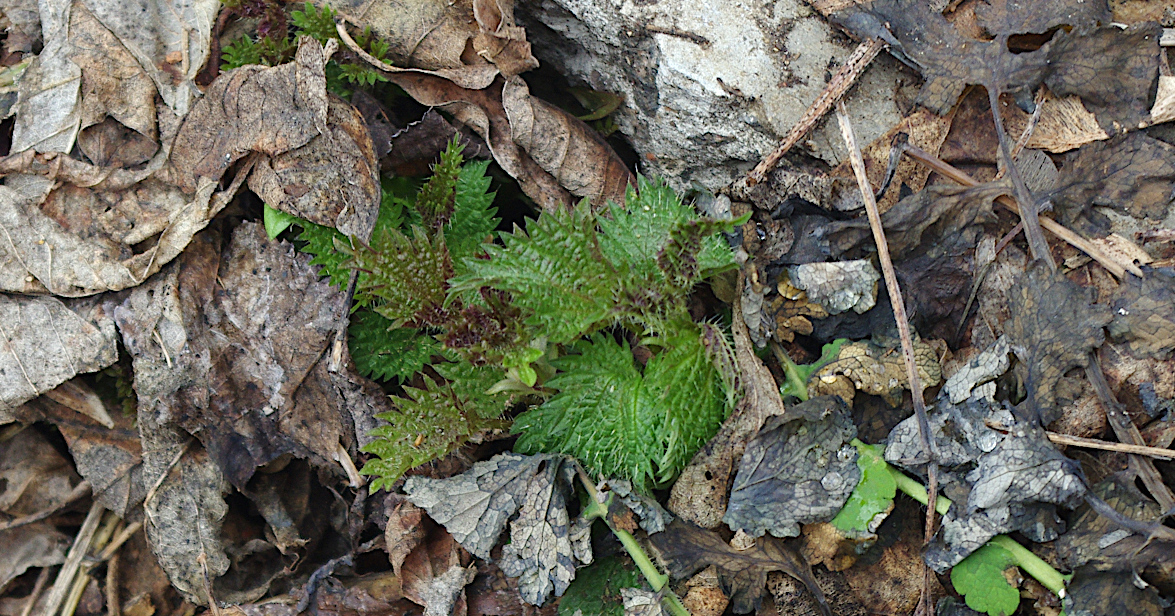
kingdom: Plantae
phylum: Tracheophyta
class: Magnoliopsida
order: Rosales
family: Urticaceae
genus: Urtica
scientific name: Urtica dioica
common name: Common nettle
